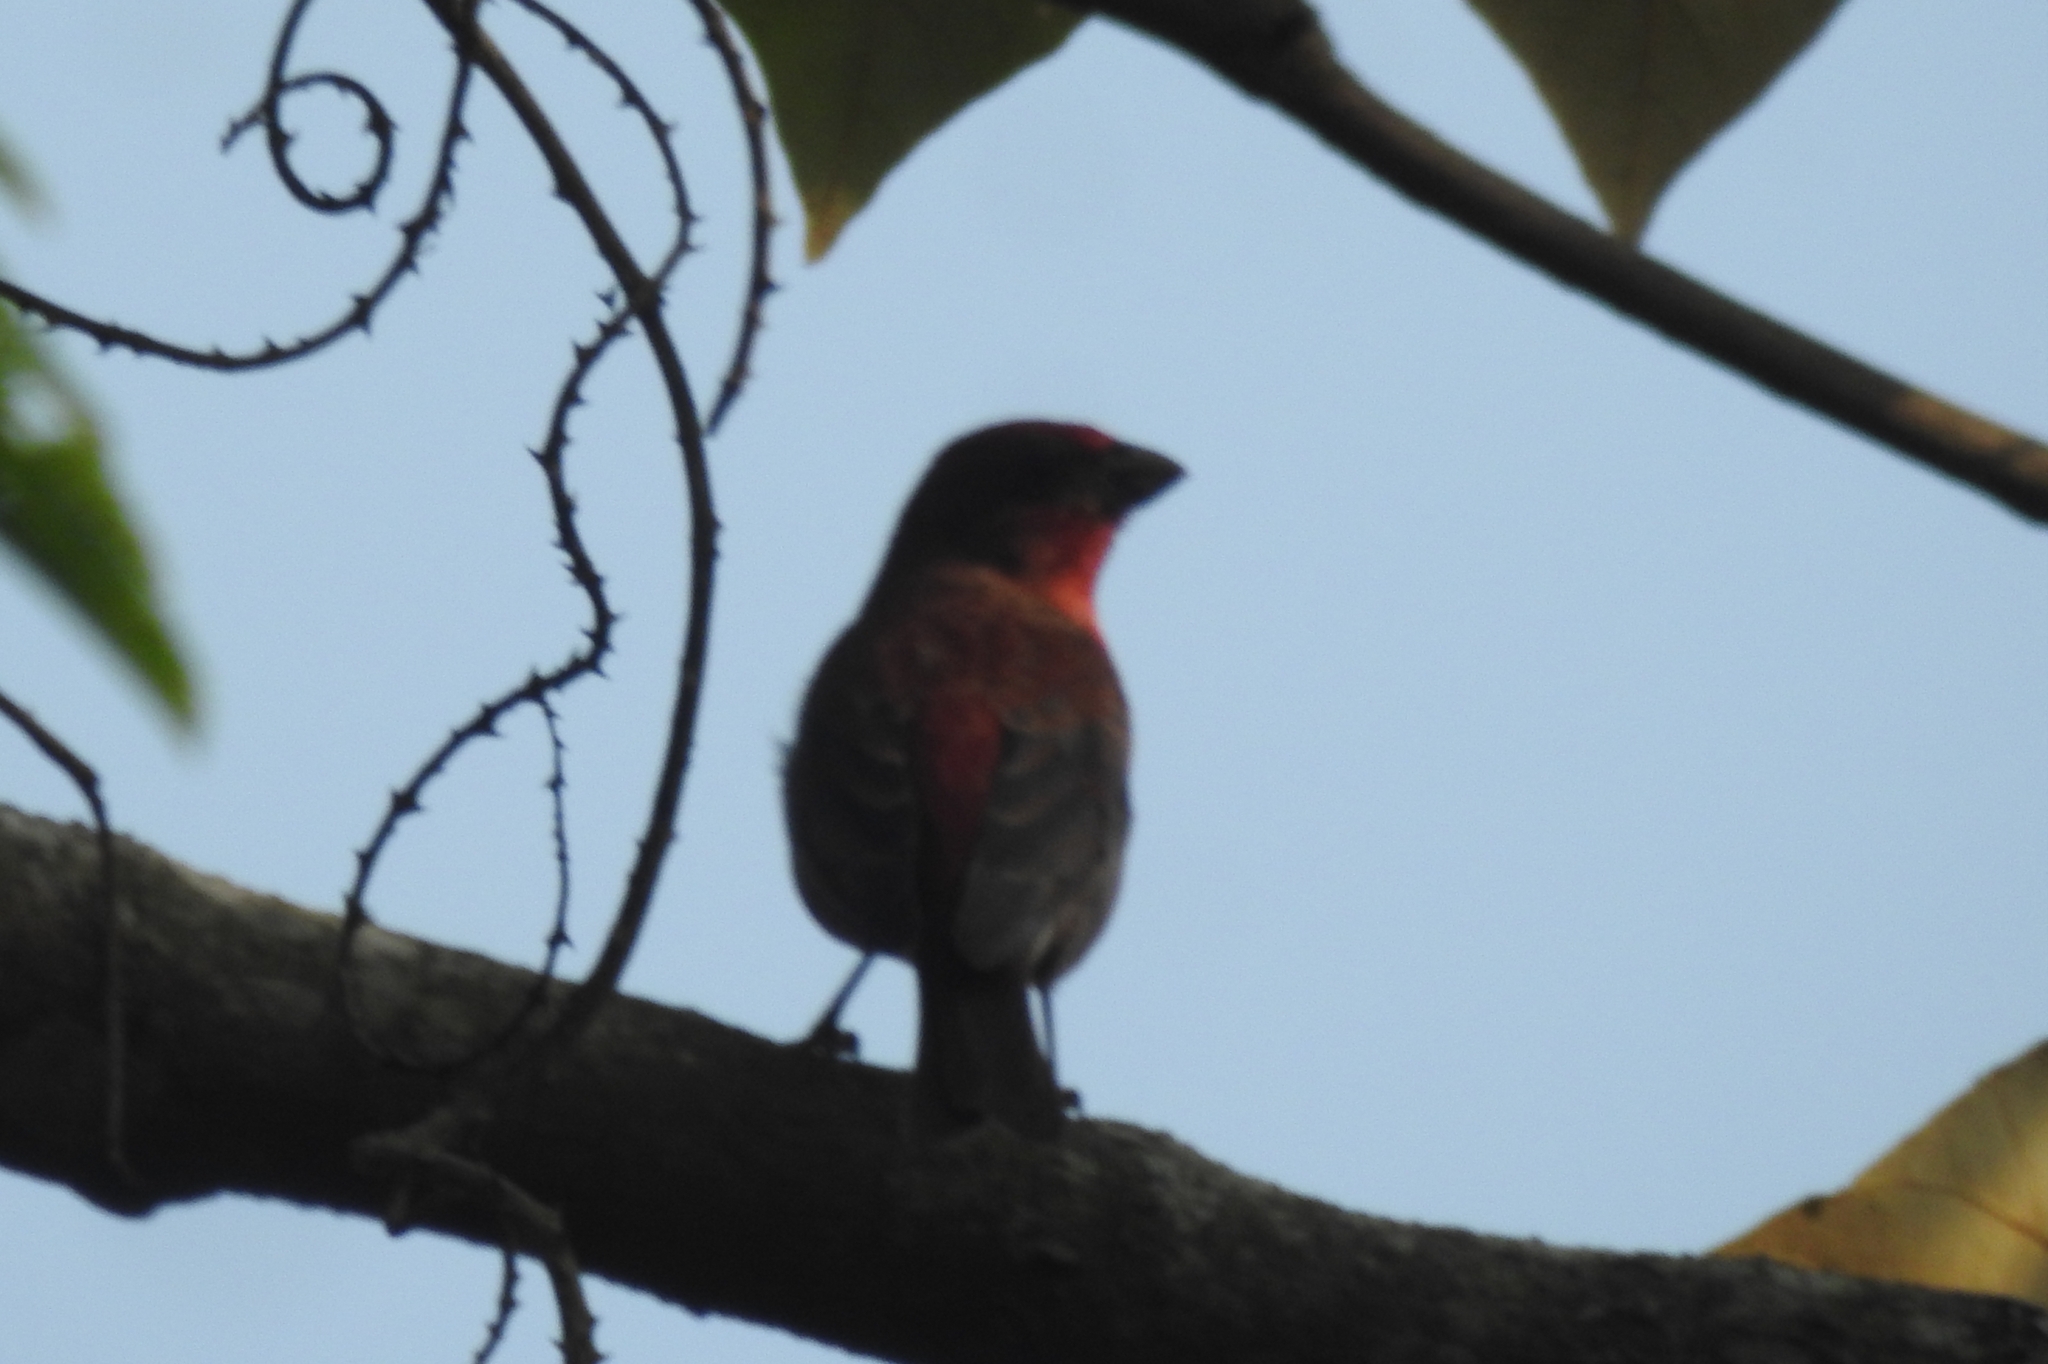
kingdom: Animalia
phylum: Chordata
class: Aves
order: Passeriformes
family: Fringillidae
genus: Carpodacus
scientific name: Carpodacus erythrinus
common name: Common rosefinch
